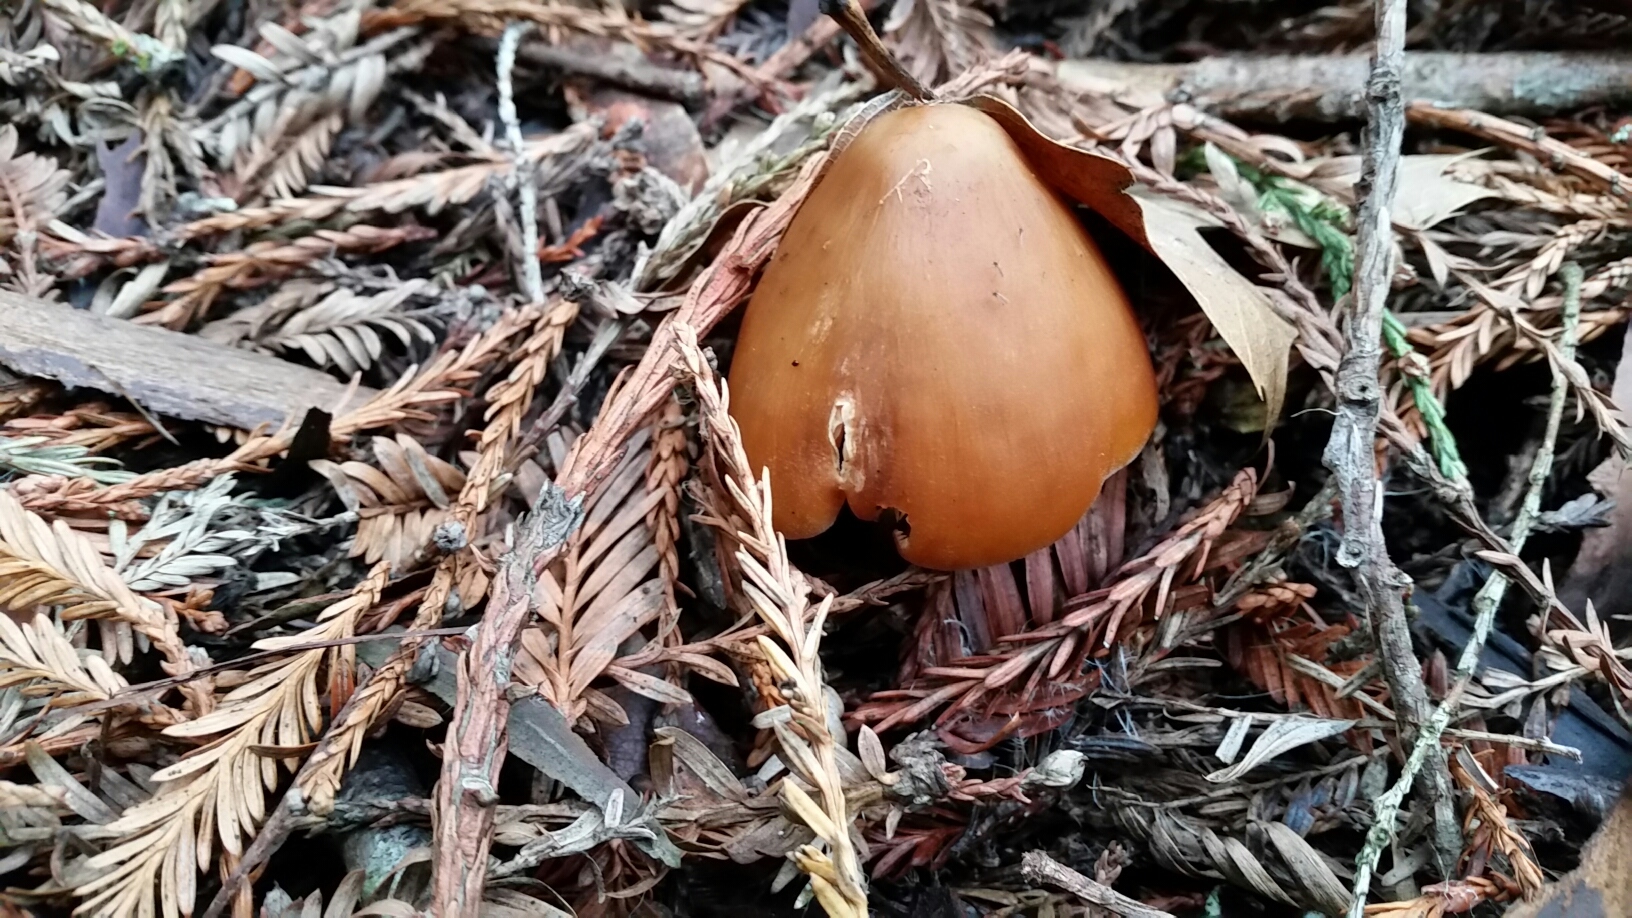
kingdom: Fungi
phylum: Basidiomycota
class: Agaricomycetes
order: Agaricales
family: Tricholomataceae
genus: Caulorhiza
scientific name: Caulorhiza umbonata
